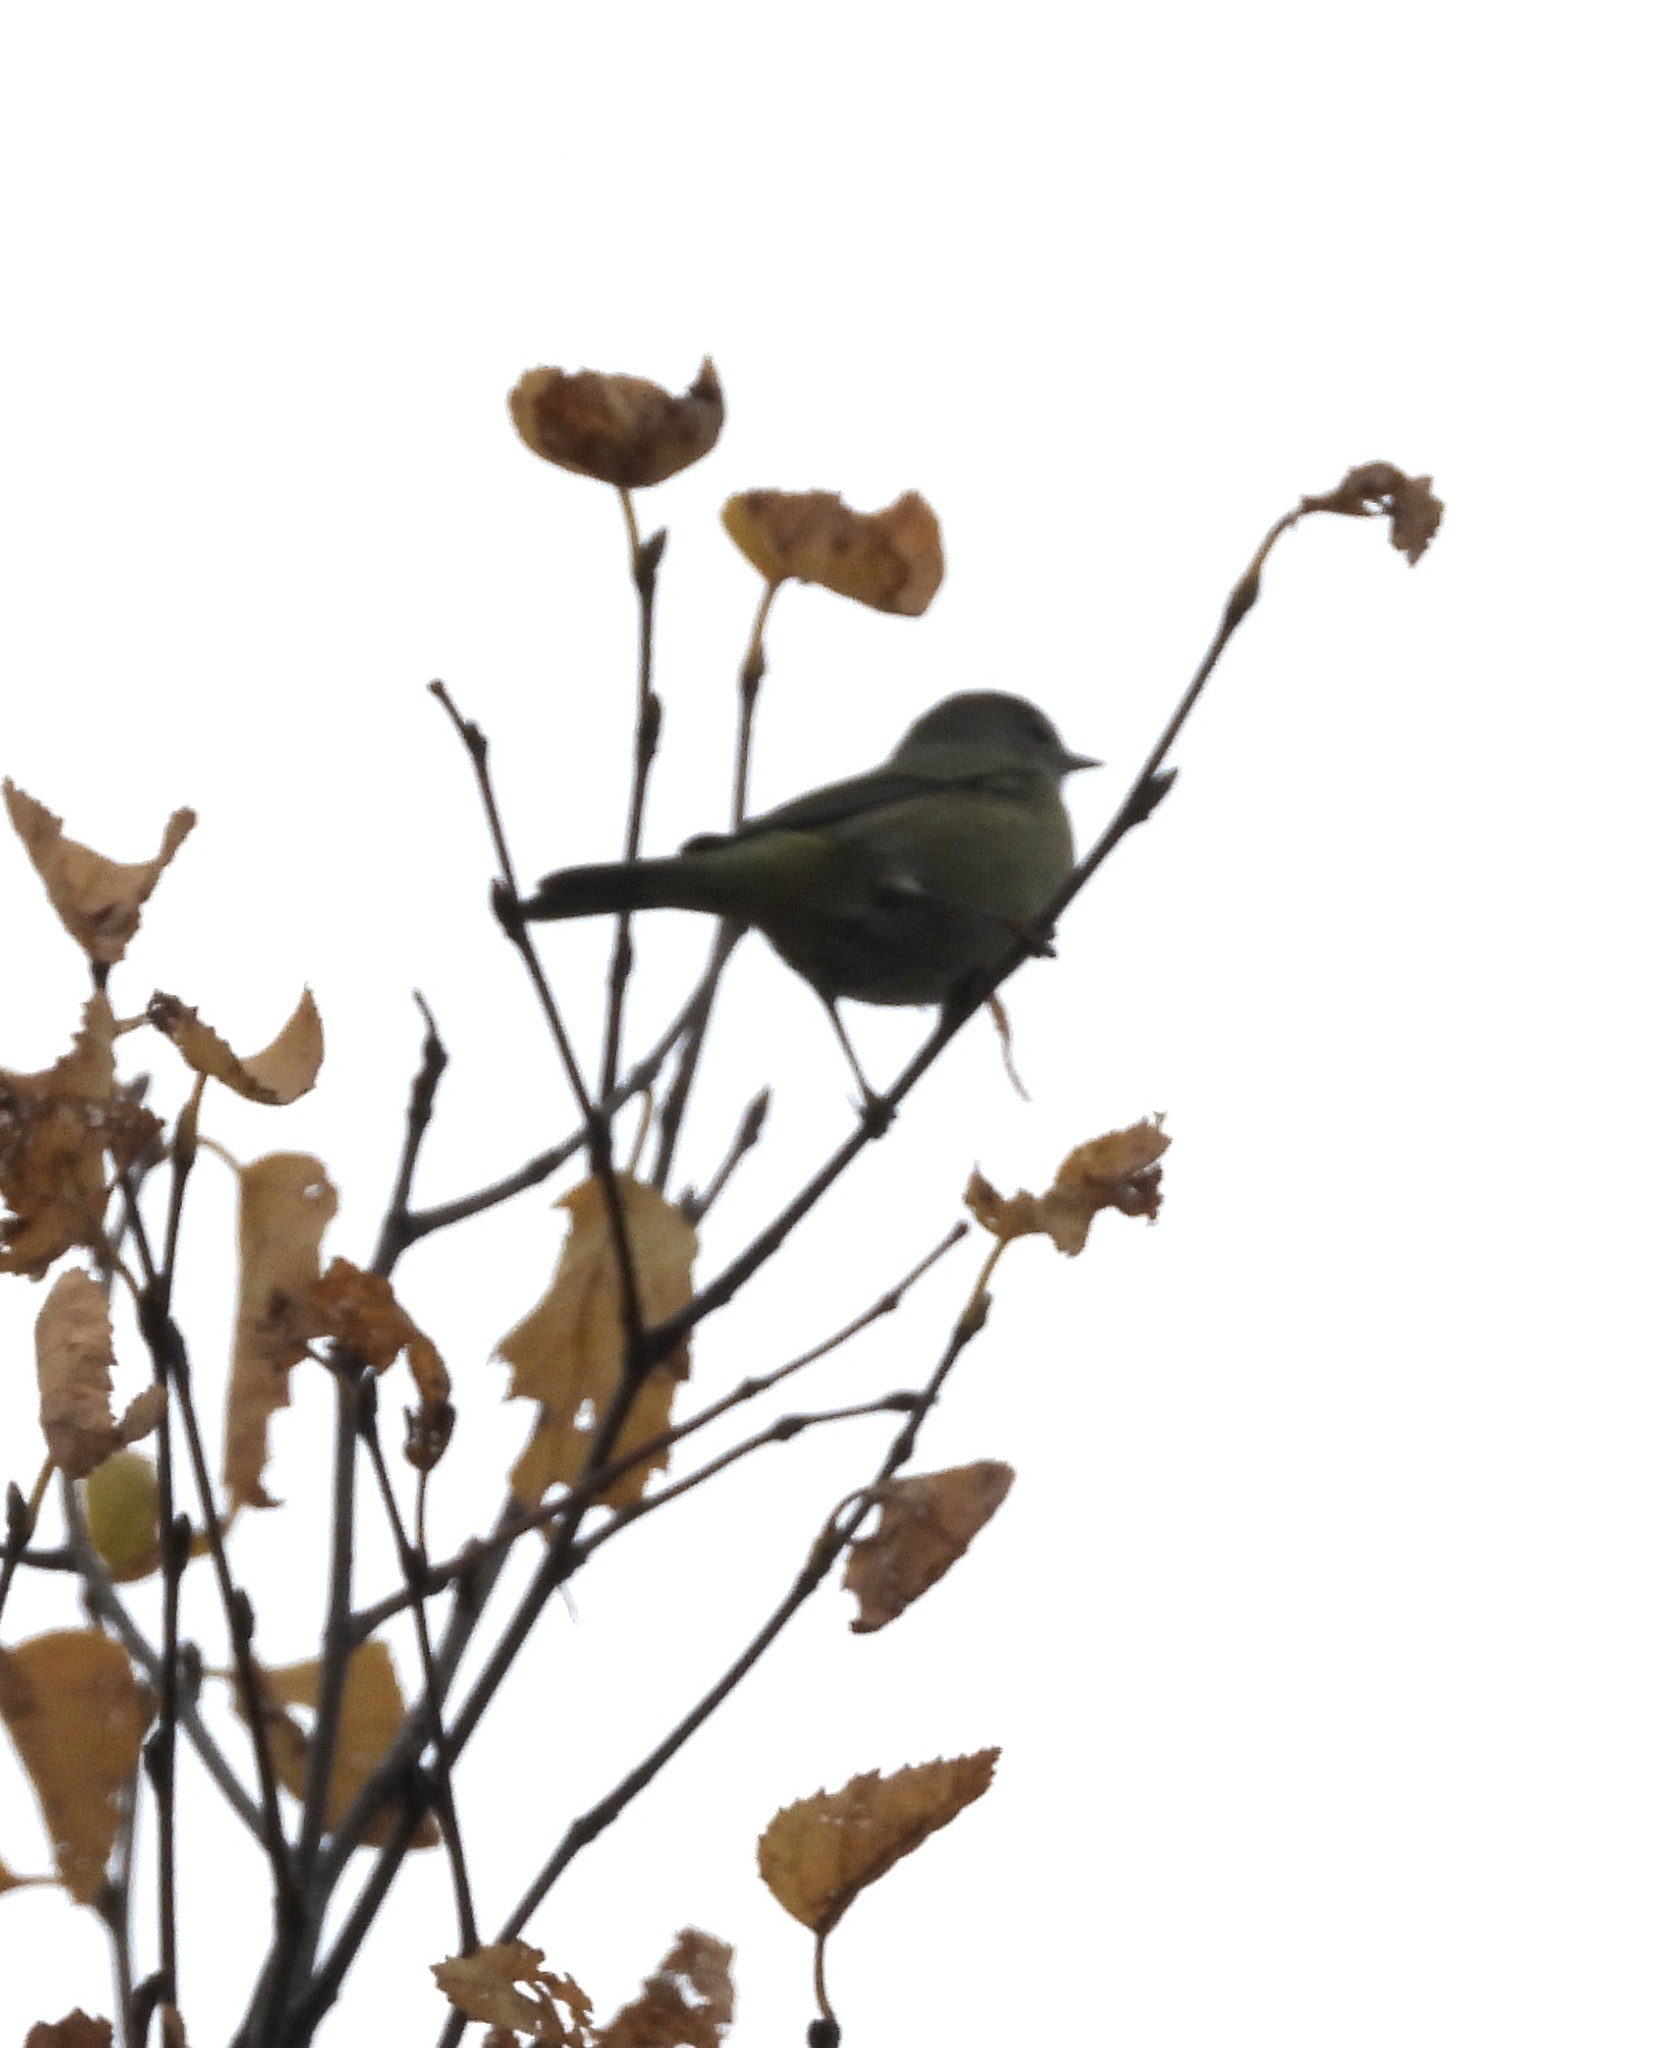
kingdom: Animalia
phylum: Chordata
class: Aves
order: Passeriformes
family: Parulidae
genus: Leiothlypis
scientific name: Leiothlypis celata
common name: Orange-crowned warbler
